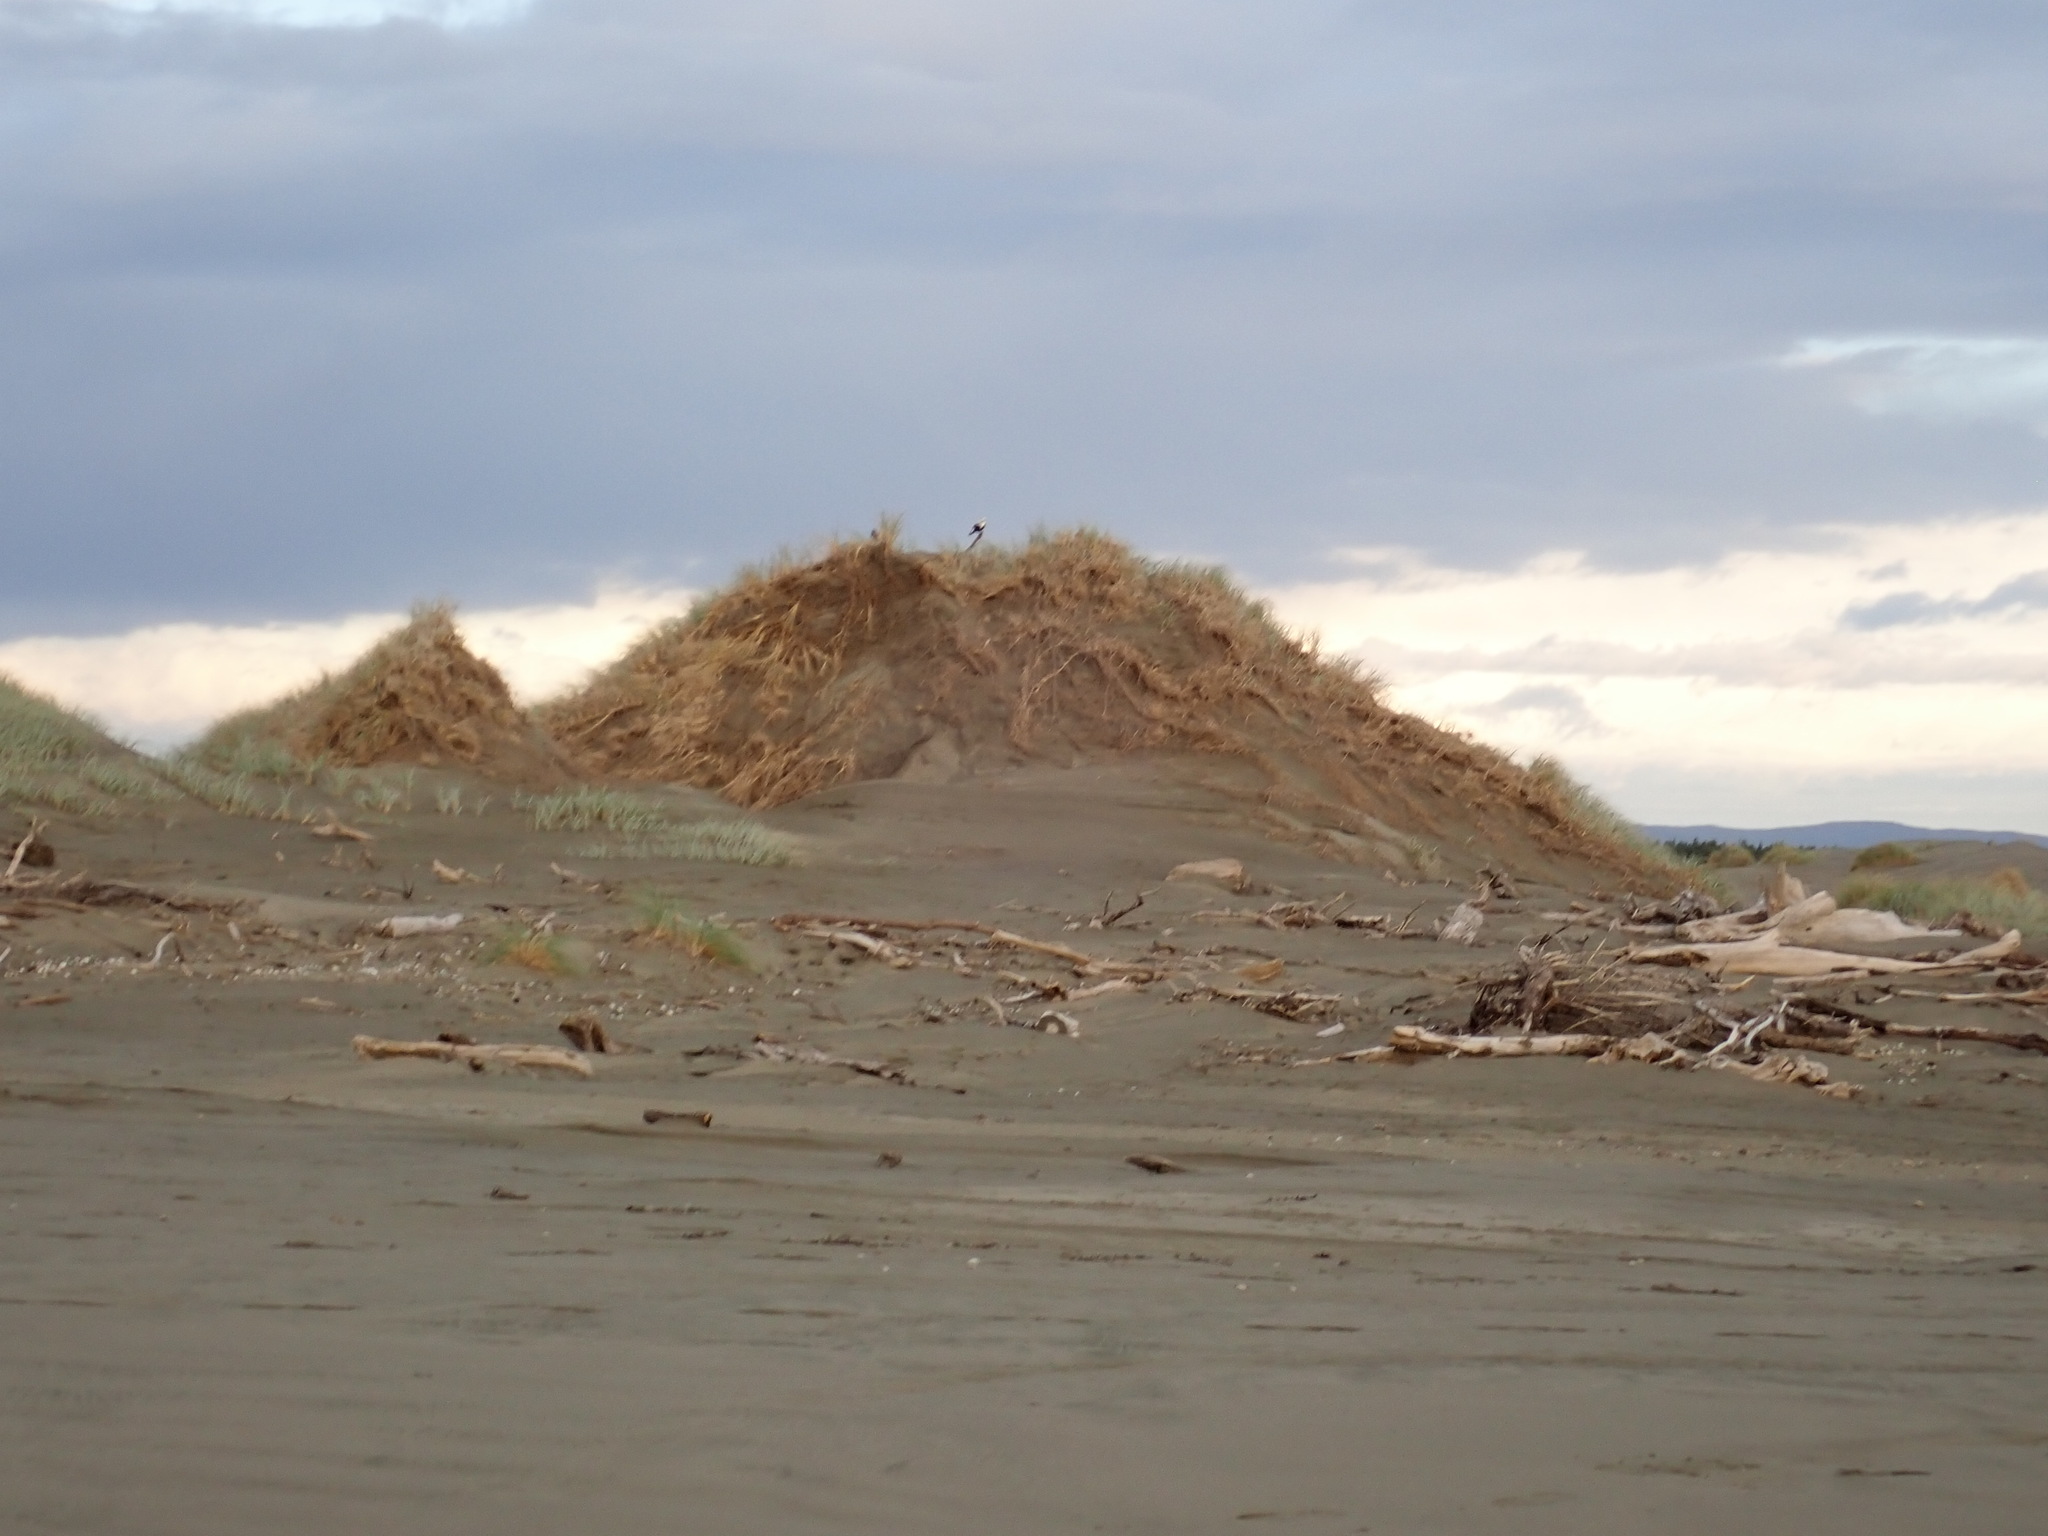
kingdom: Animalia
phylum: Chordata
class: Aves
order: Passeriformes
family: Cracticidae
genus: Gymnorhina
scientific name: Gymnorhina tibicen
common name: Australian magpie
